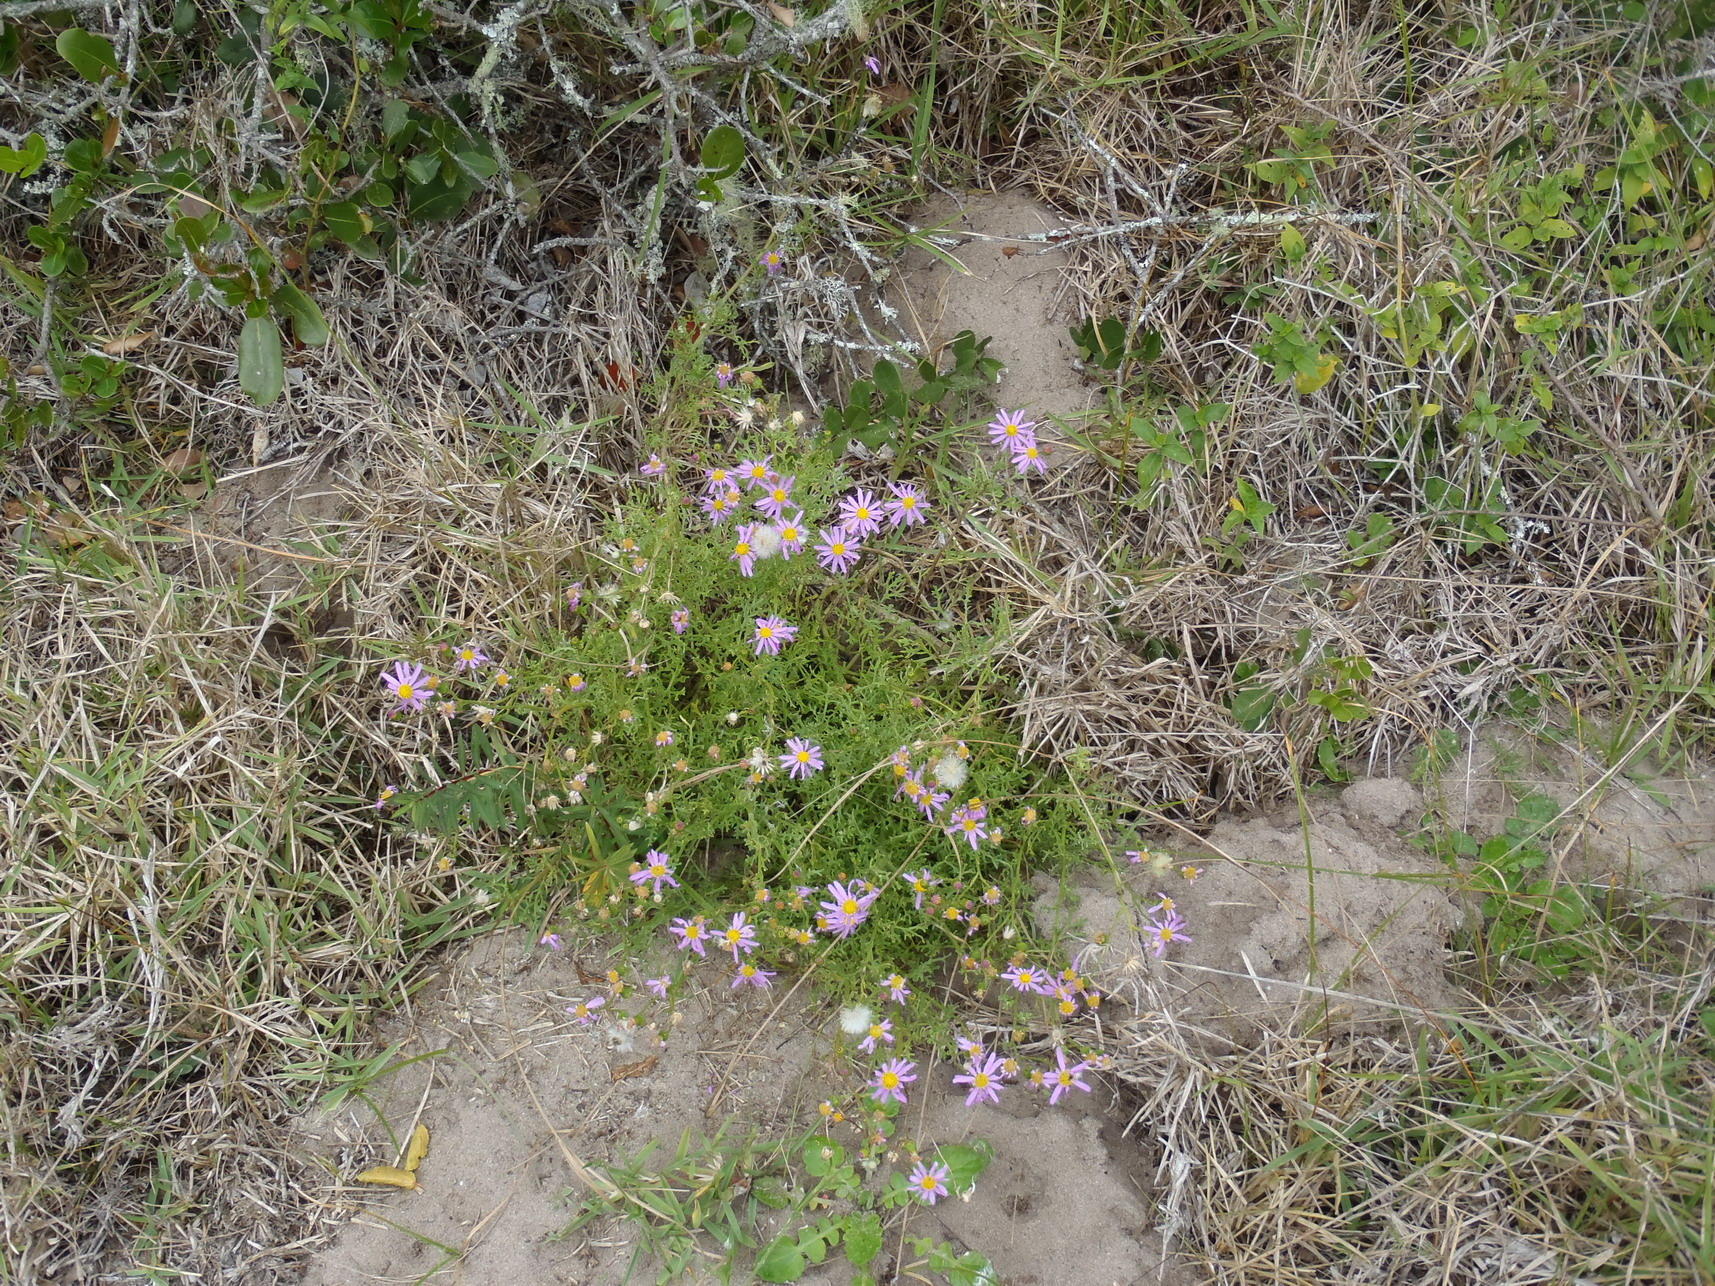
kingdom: Plantae
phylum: Tracheophyta
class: Magnoliopsida
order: Asterales
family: Asteraceae
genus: Senecio
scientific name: Senecio elegans
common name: Purple groundsel
